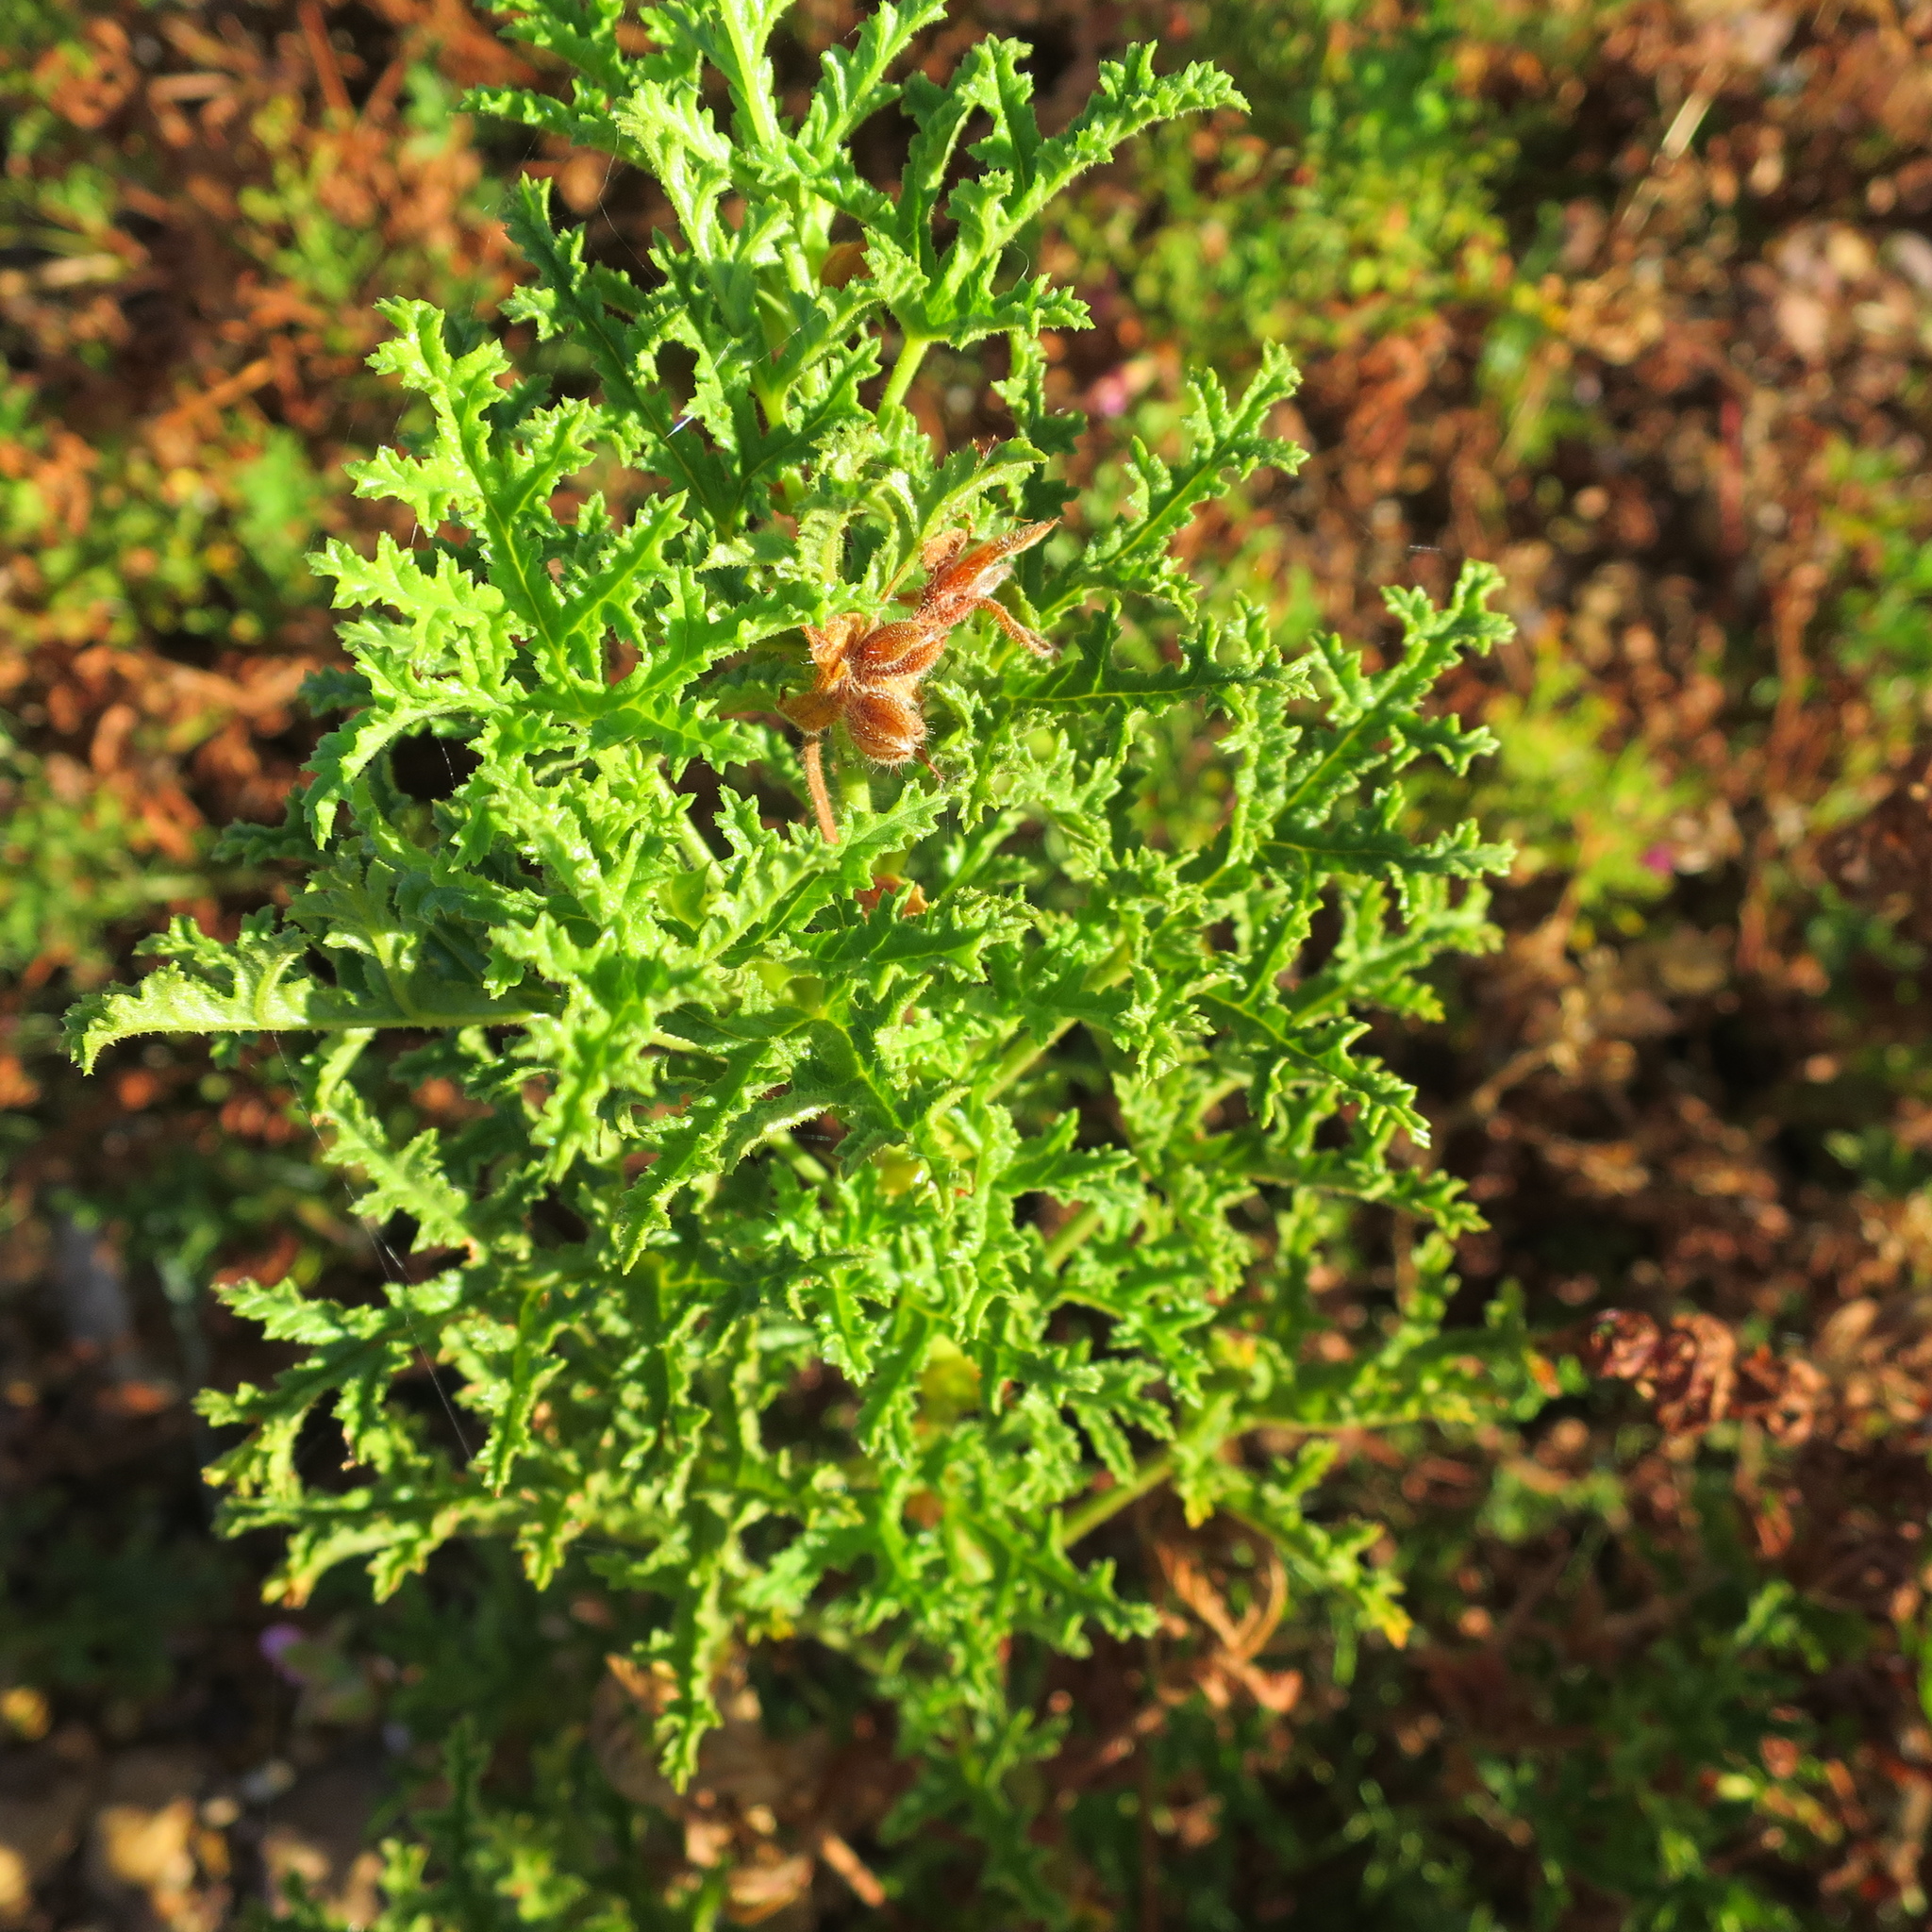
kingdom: Plantae
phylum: Tracheophyta
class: Magnoliopsida
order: Geraniales
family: Geraniaceae
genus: Pelargonium
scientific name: Pelargonium quercifolium
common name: Oakleaf geranium
